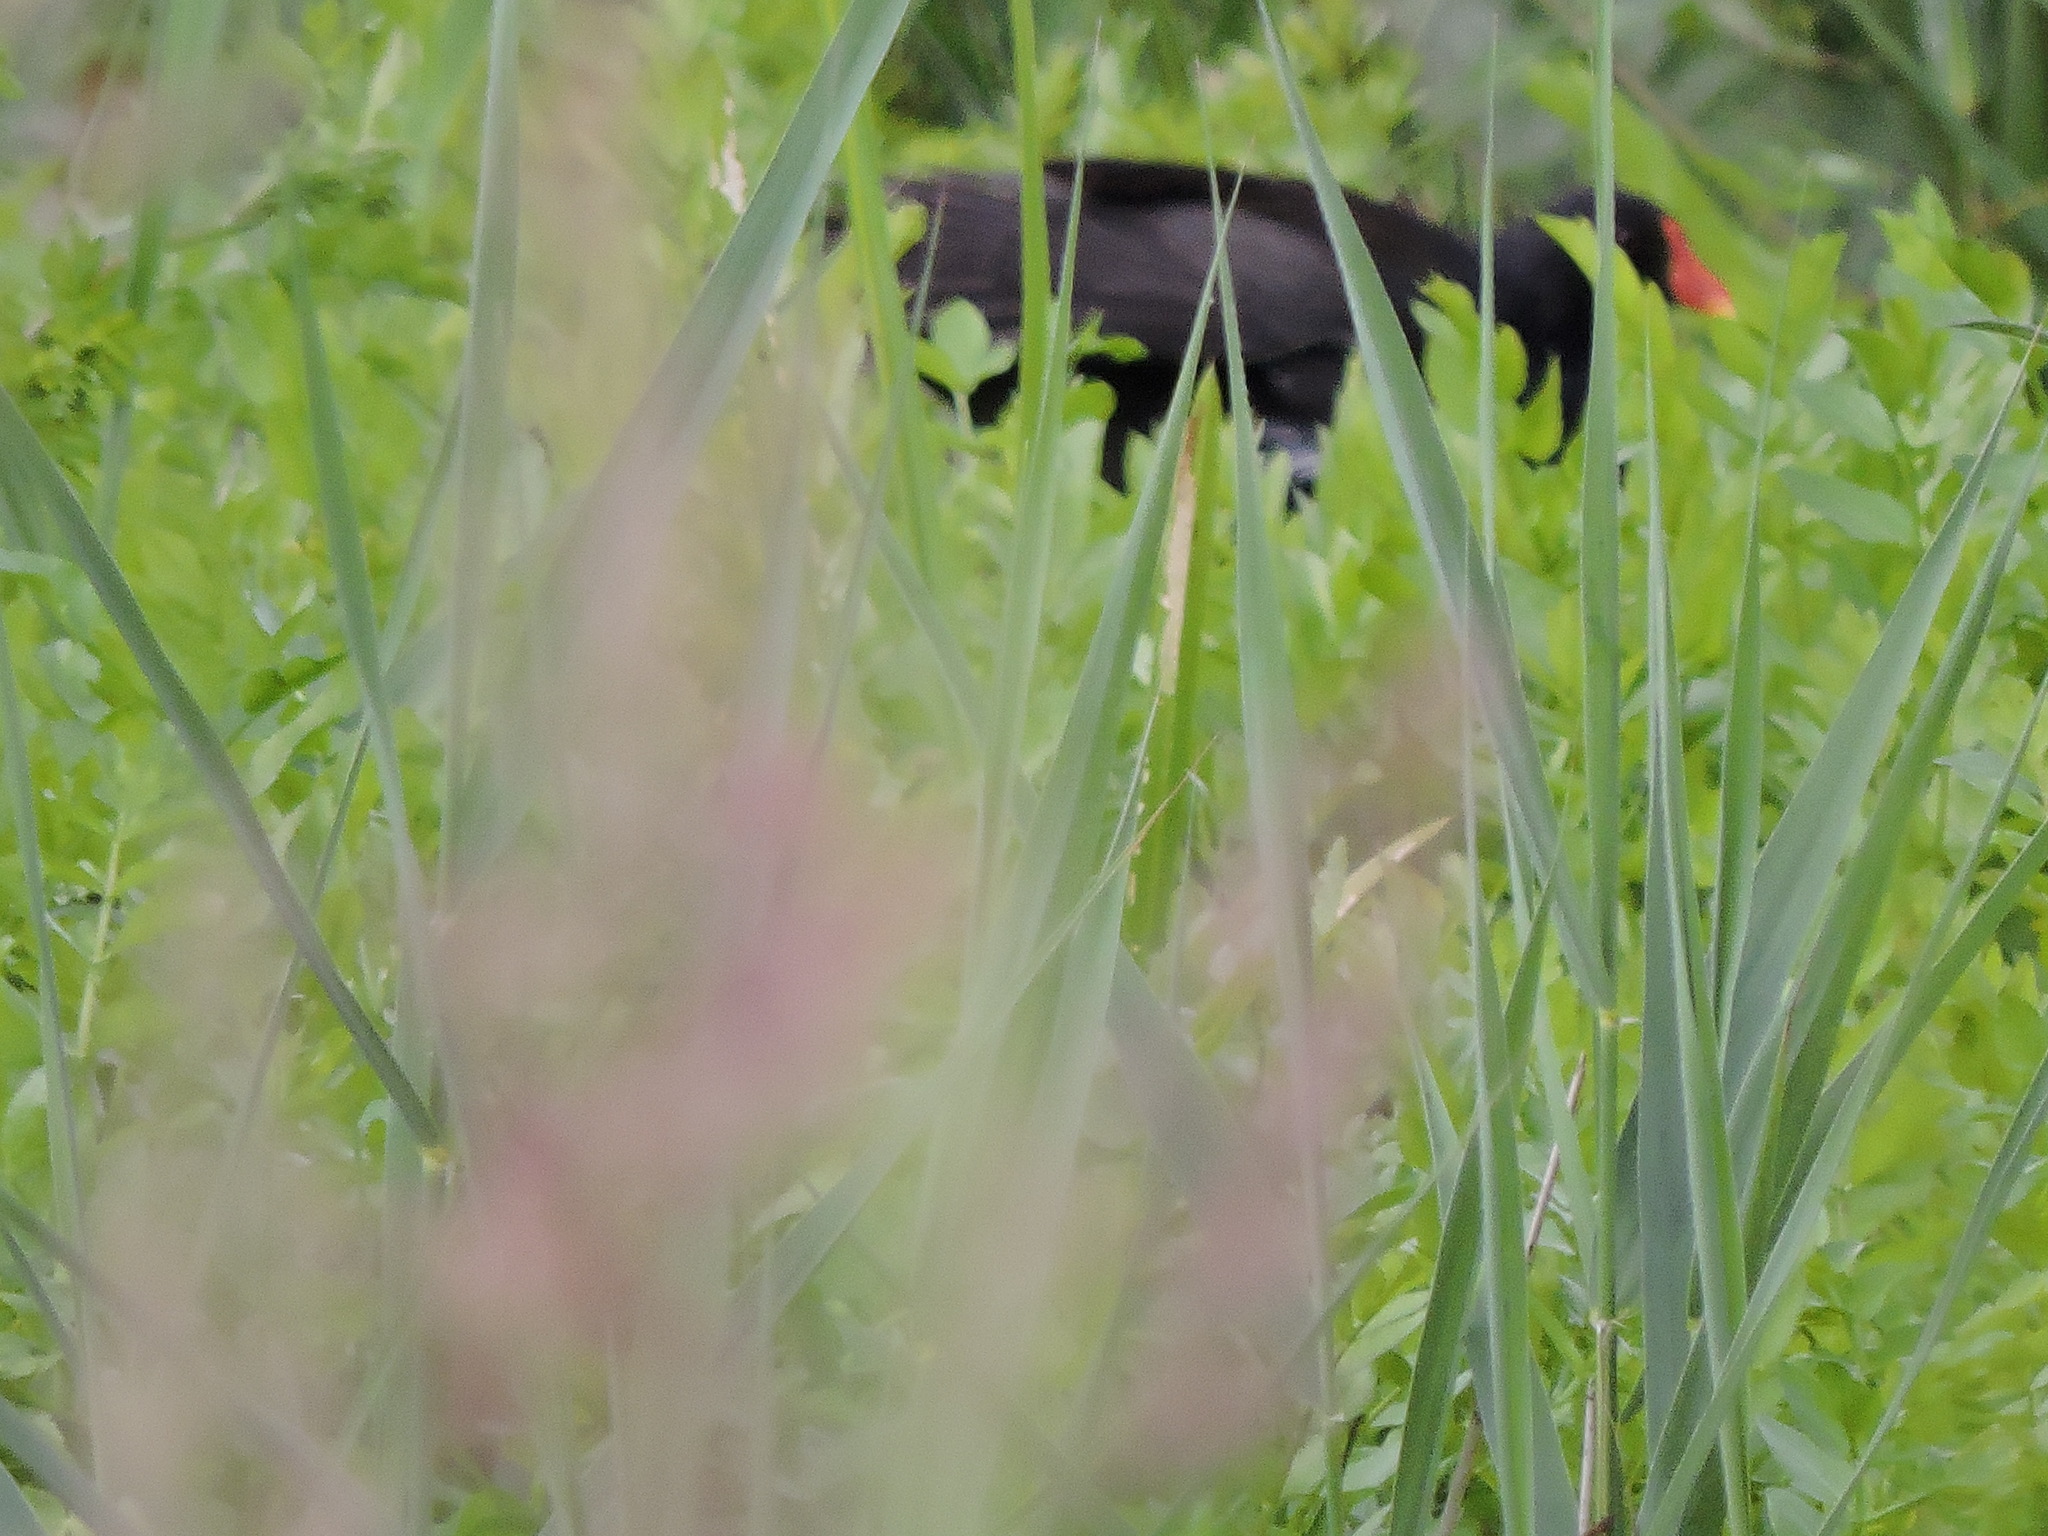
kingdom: Animalia
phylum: Chordata
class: Aves
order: Gruiformes
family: Rallidae
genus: Gallinula
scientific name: Gallinula chloropus
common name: Common moorhen
